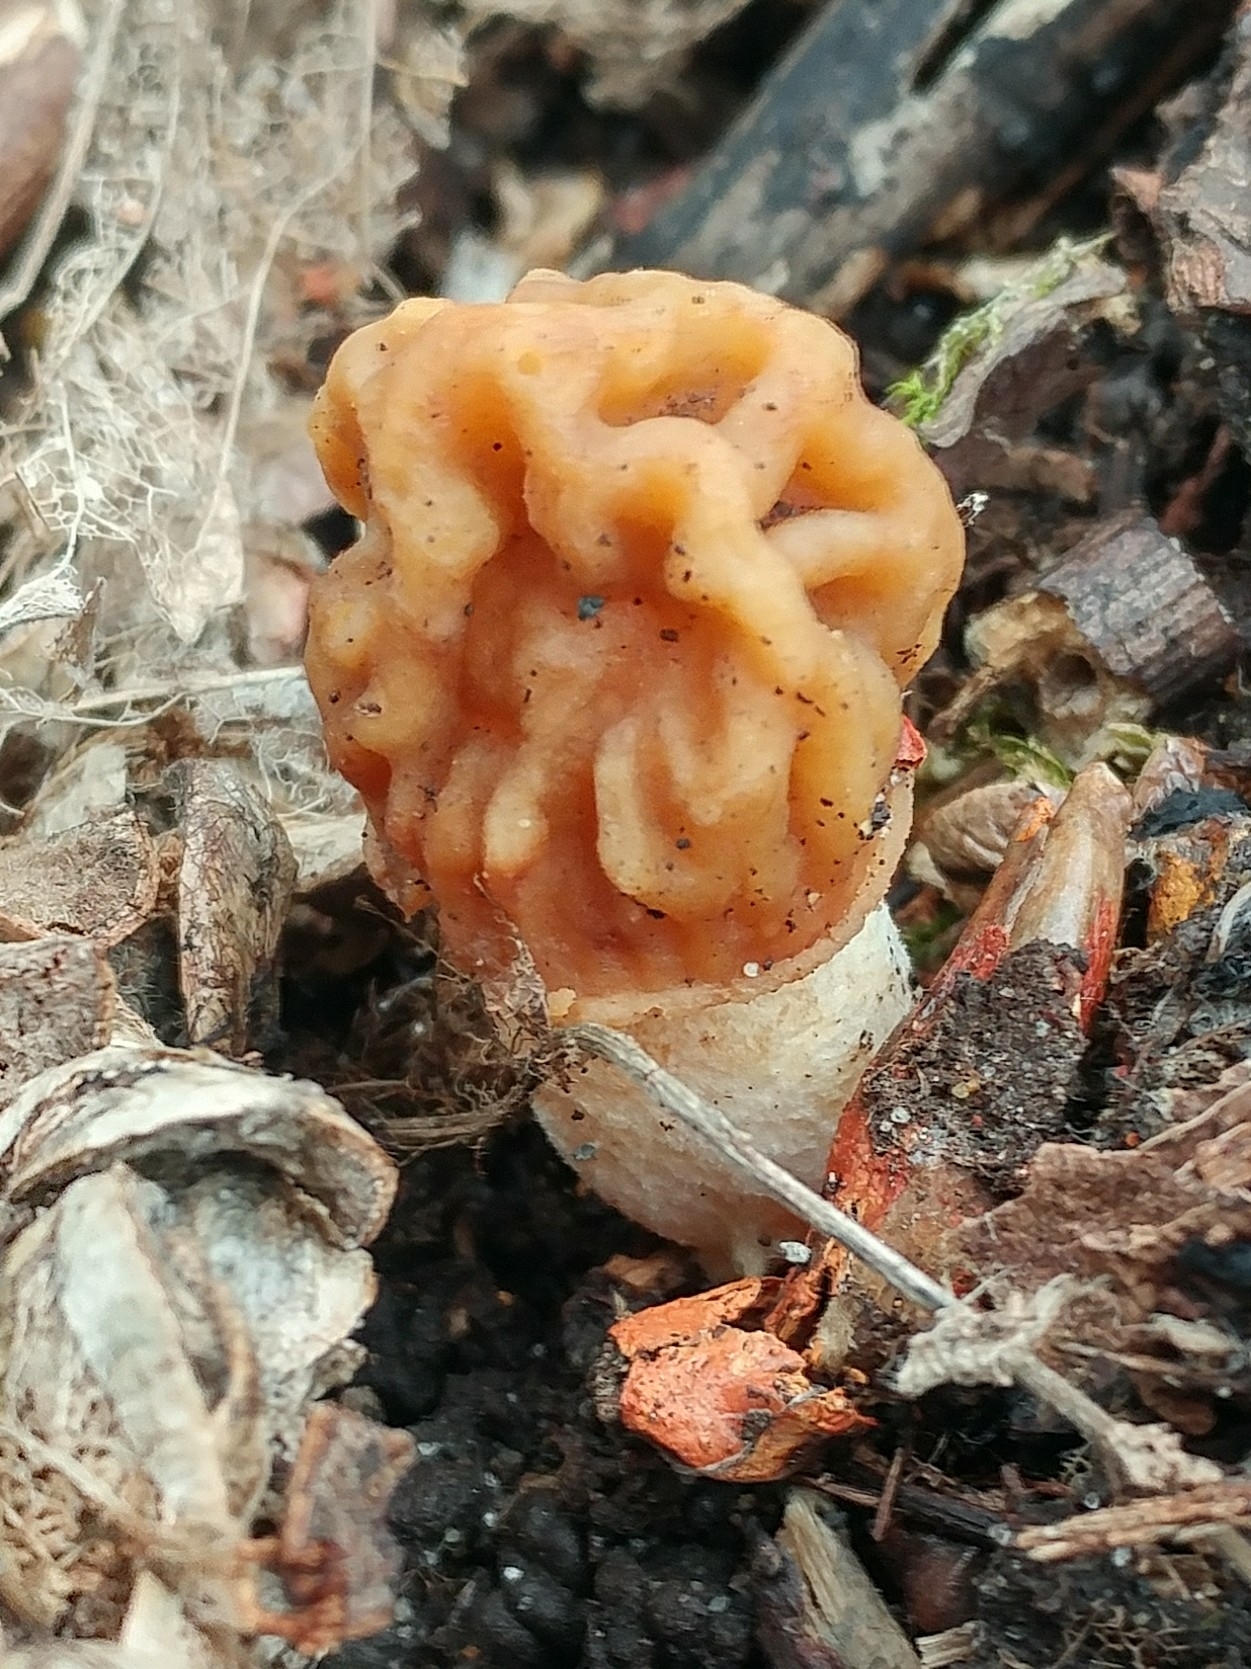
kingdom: Fungi
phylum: Ascomycota
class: Pezizomycetes
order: Pezizales
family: Morchellaceae
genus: Verpa
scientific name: Verpa bohemica
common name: Wrinkled thimble morel
